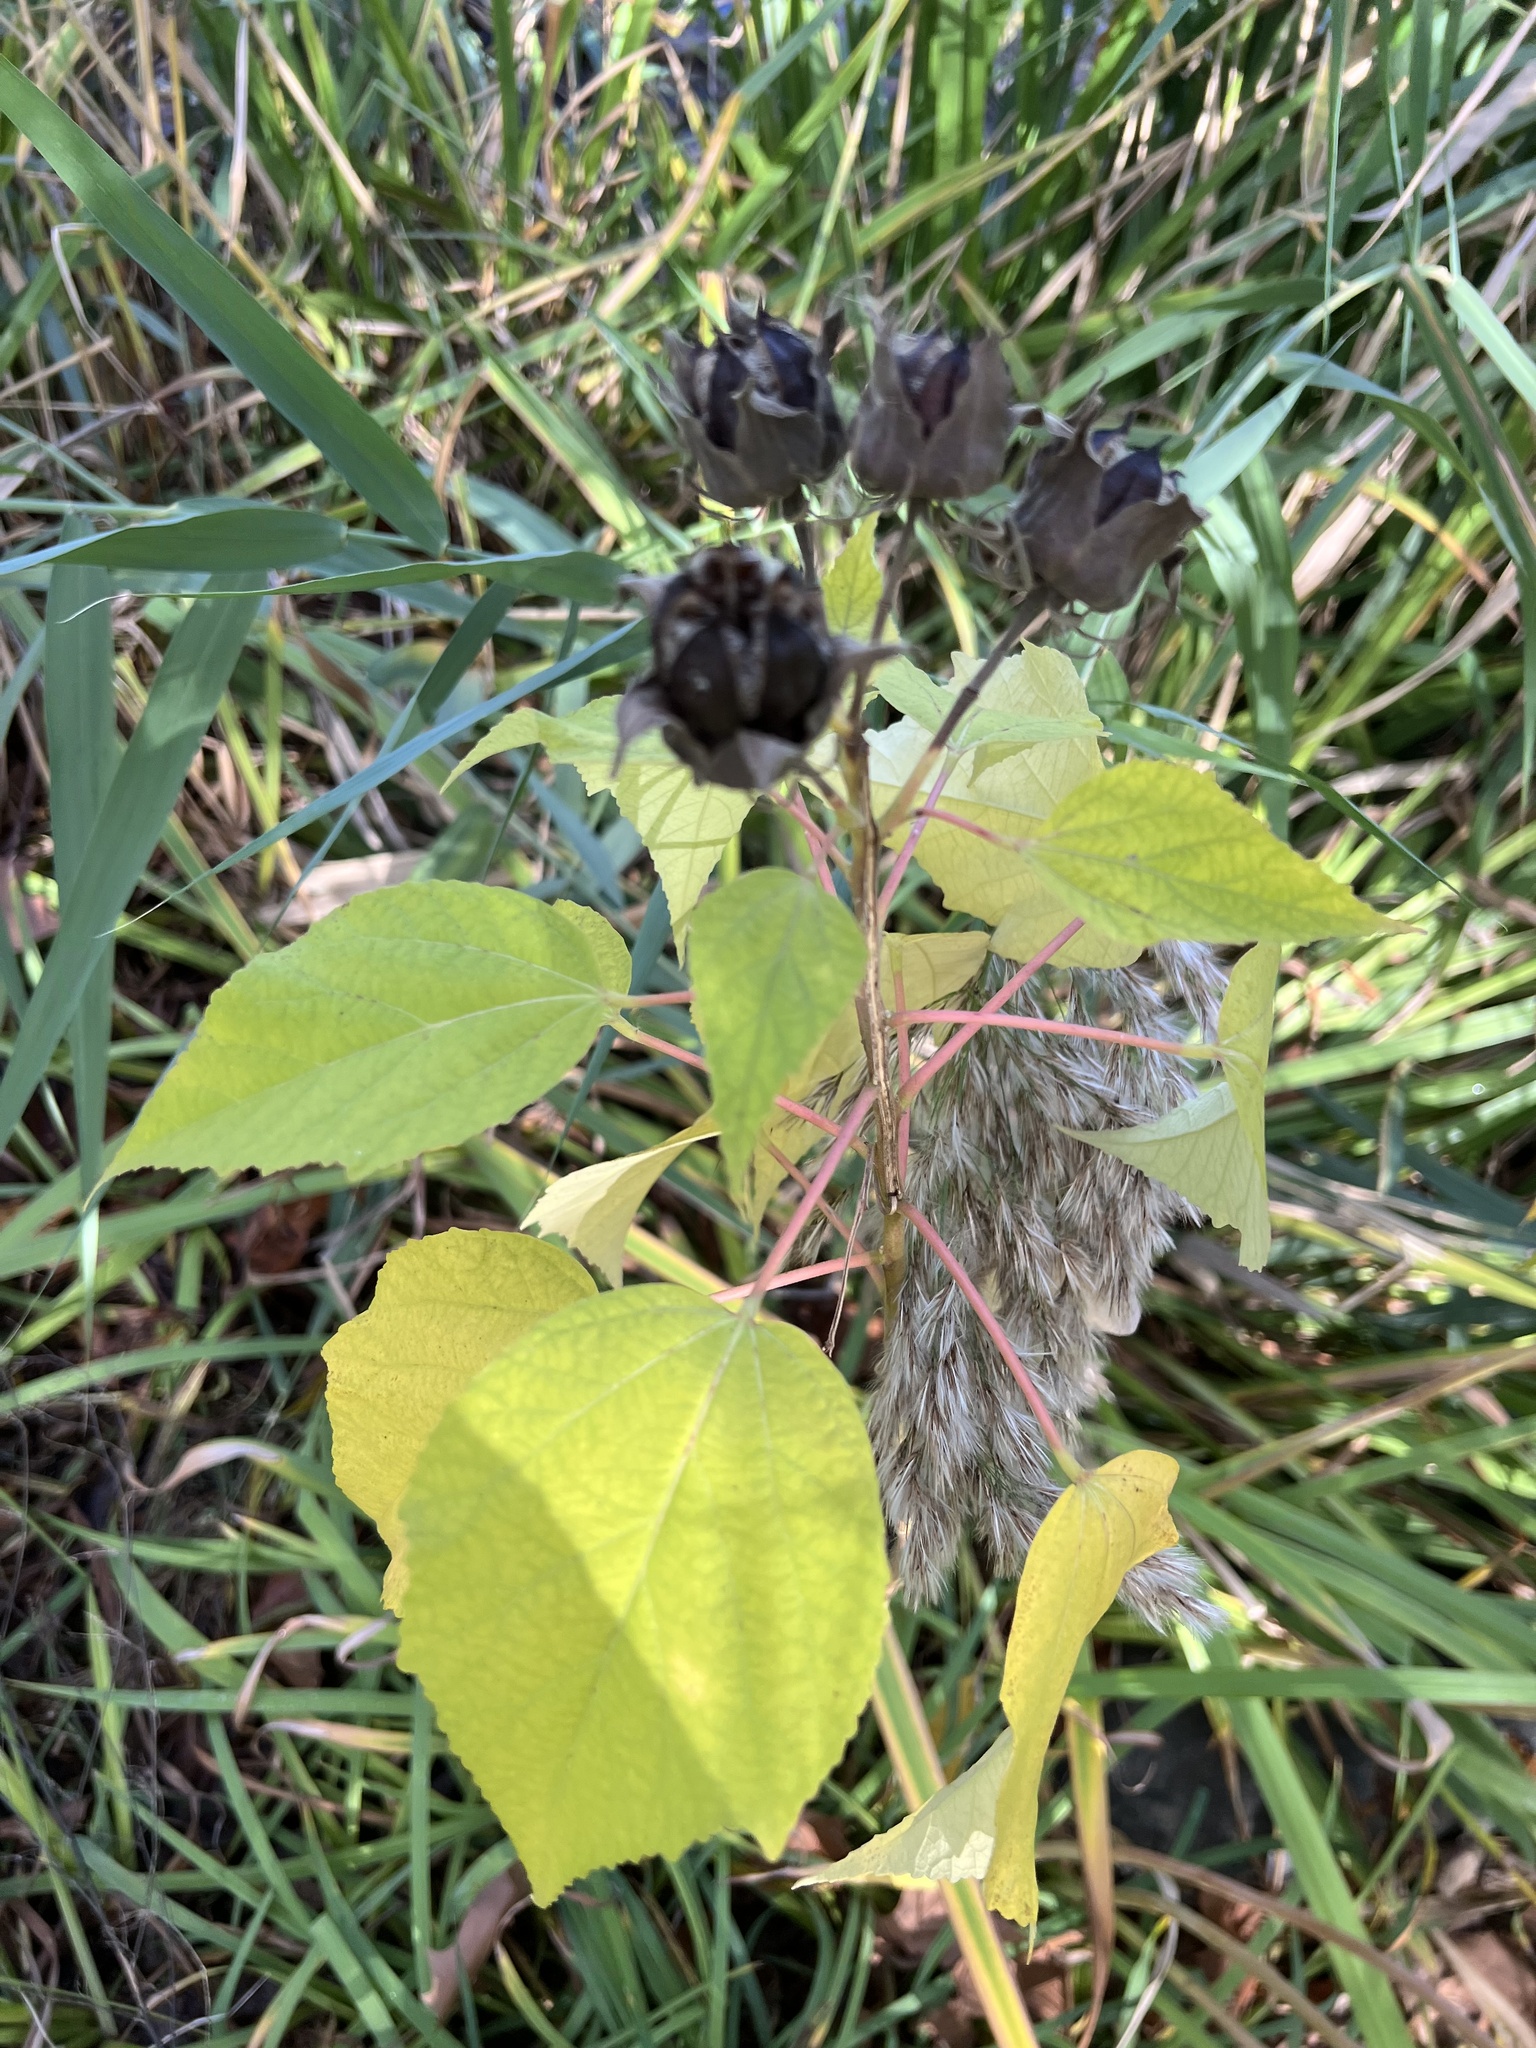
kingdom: Plantae
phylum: Tracheophyta
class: Magnoliopsida
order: Malvales
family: Malvaceae
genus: Hibiscus
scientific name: Hibiscus moscheutos
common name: Common rose-mallow
